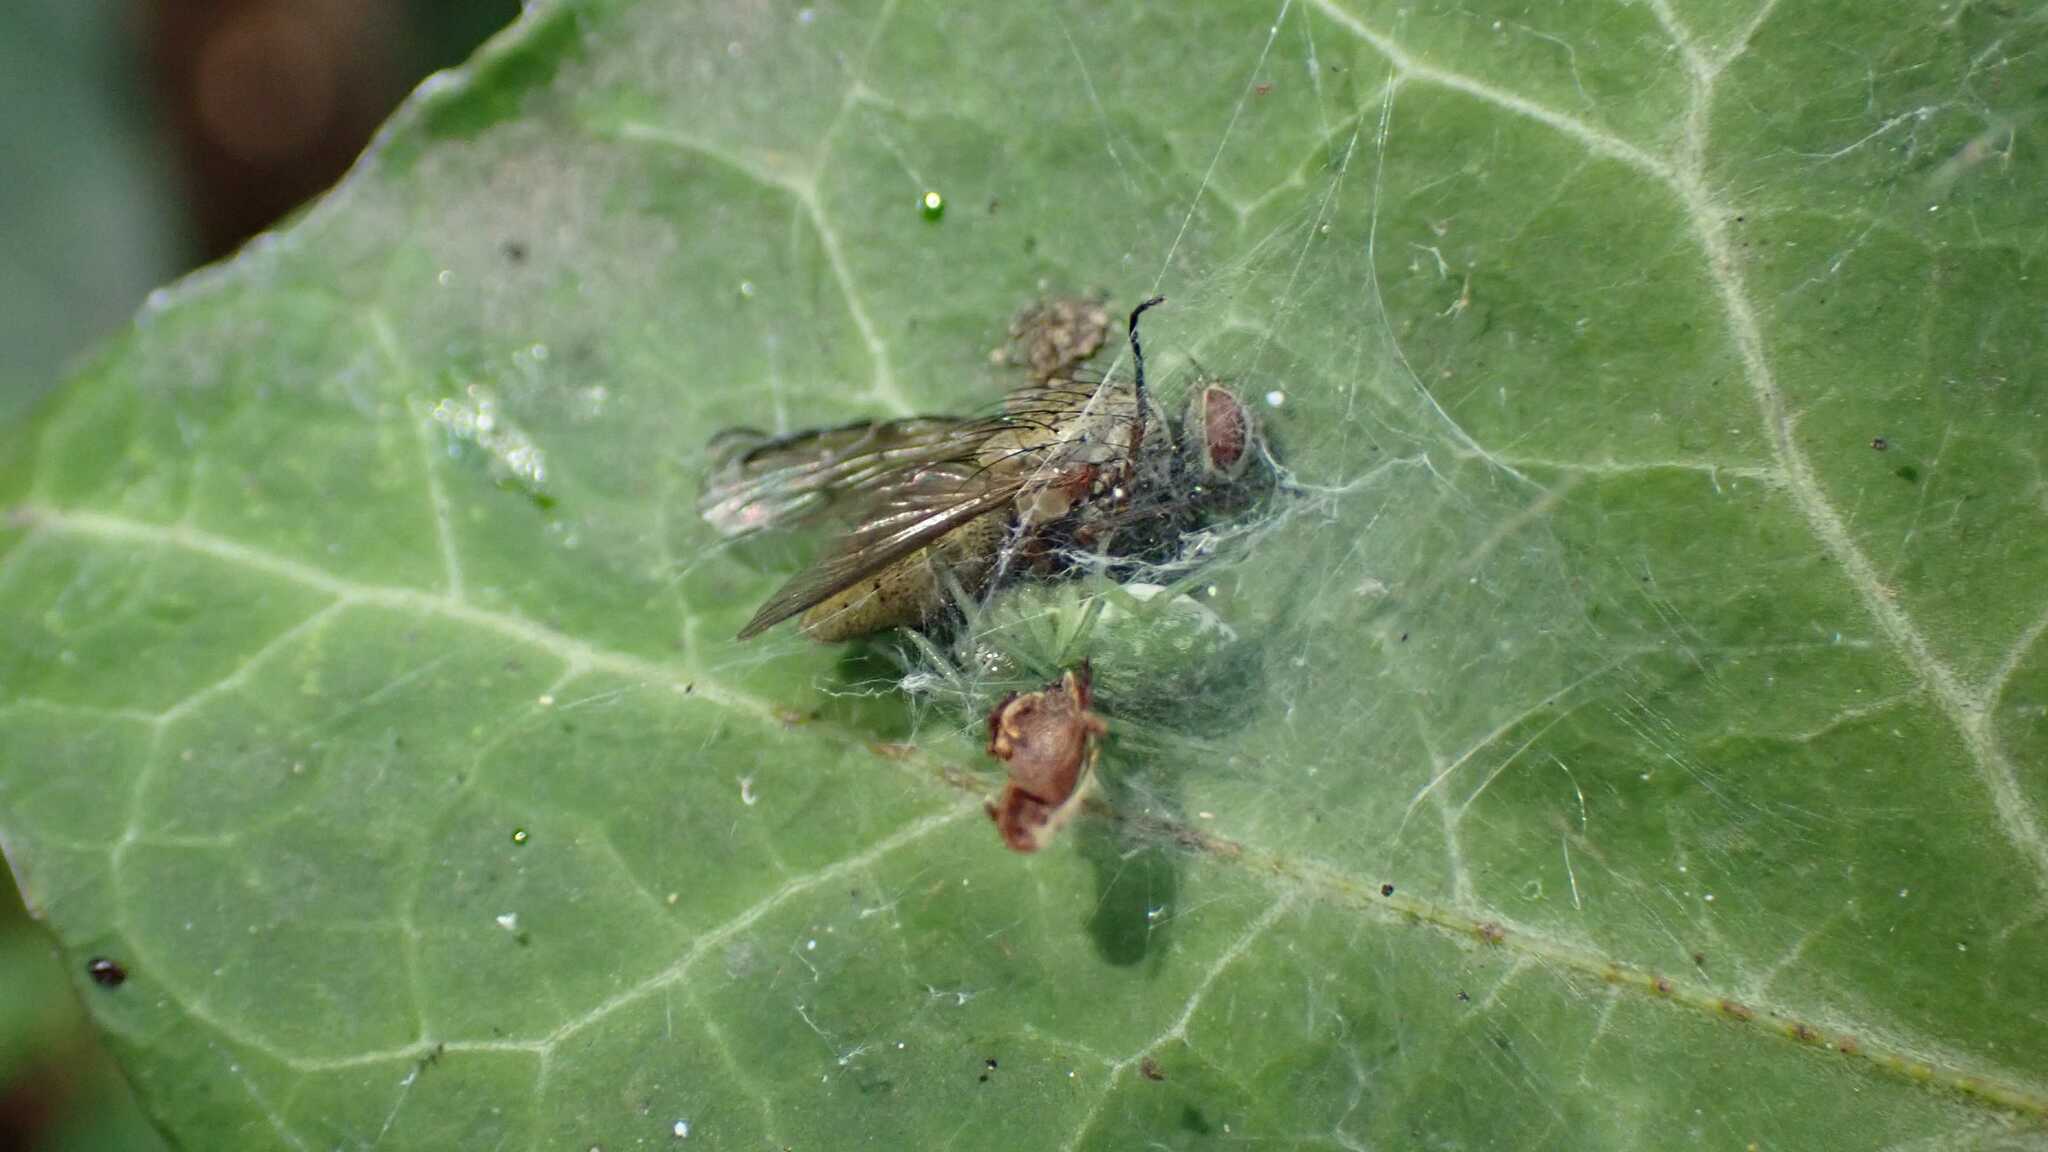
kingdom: Animalia
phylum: Arthropoda
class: Arachnida
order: Araneae
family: Dictynidae
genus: Nigma
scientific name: Nigma walckenaeri
